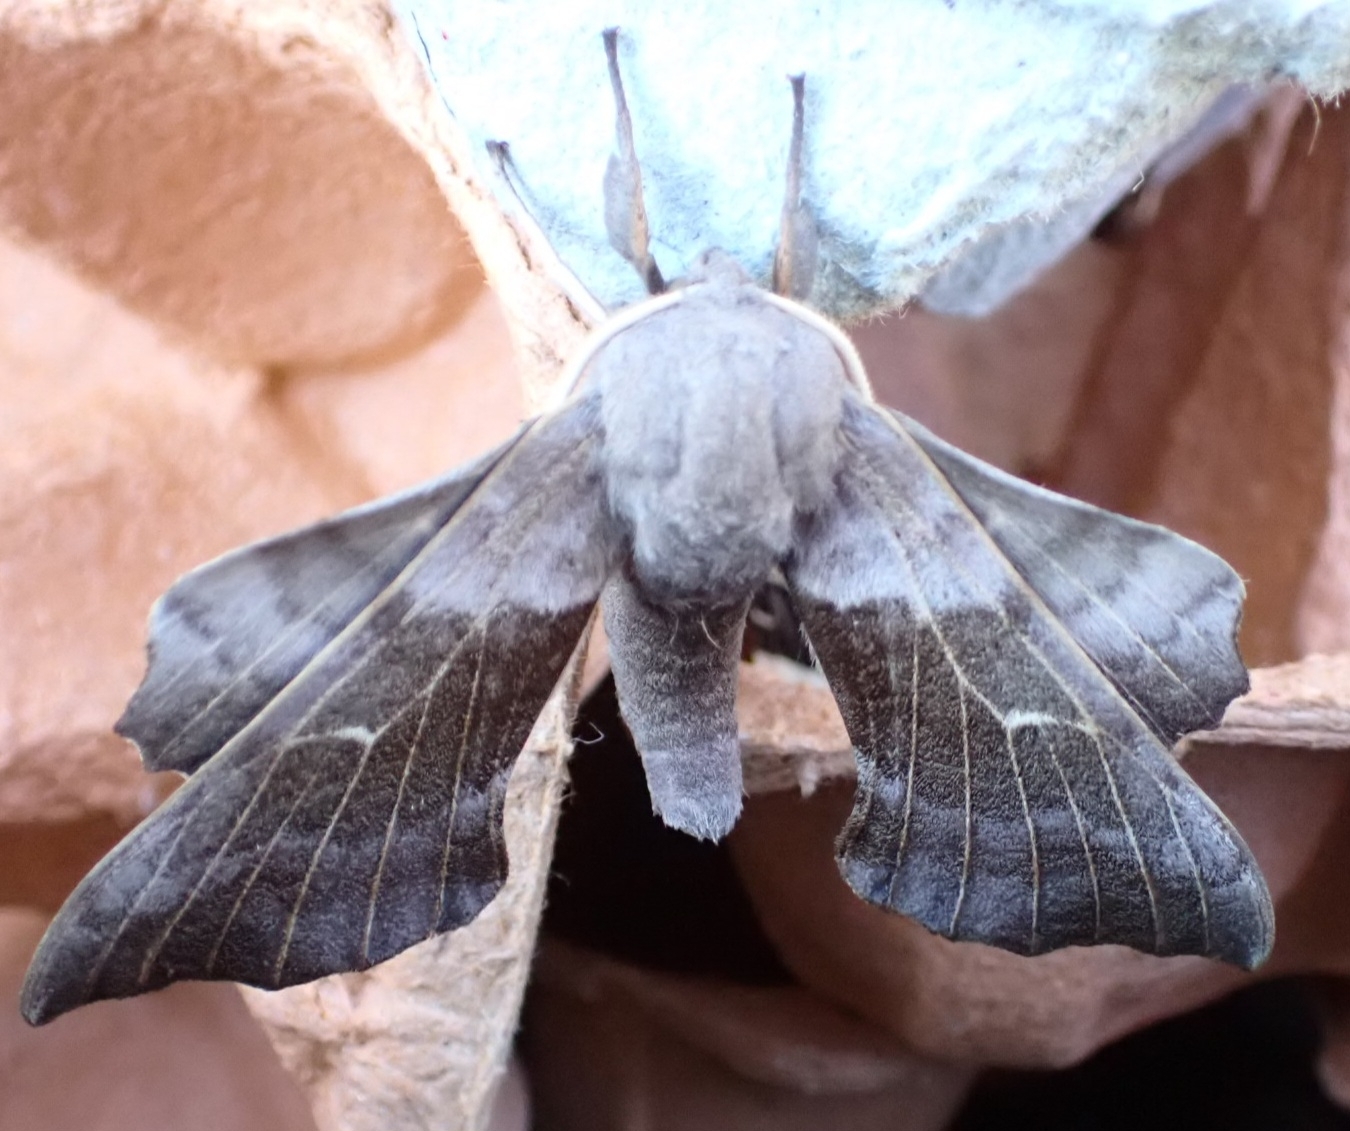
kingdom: Animalia
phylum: Arthropoda
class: Insecta
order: Lepidoptera
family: Sphingidae
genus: Laothoe
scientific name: Laothoe populi
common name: Poplar hawk-moth
